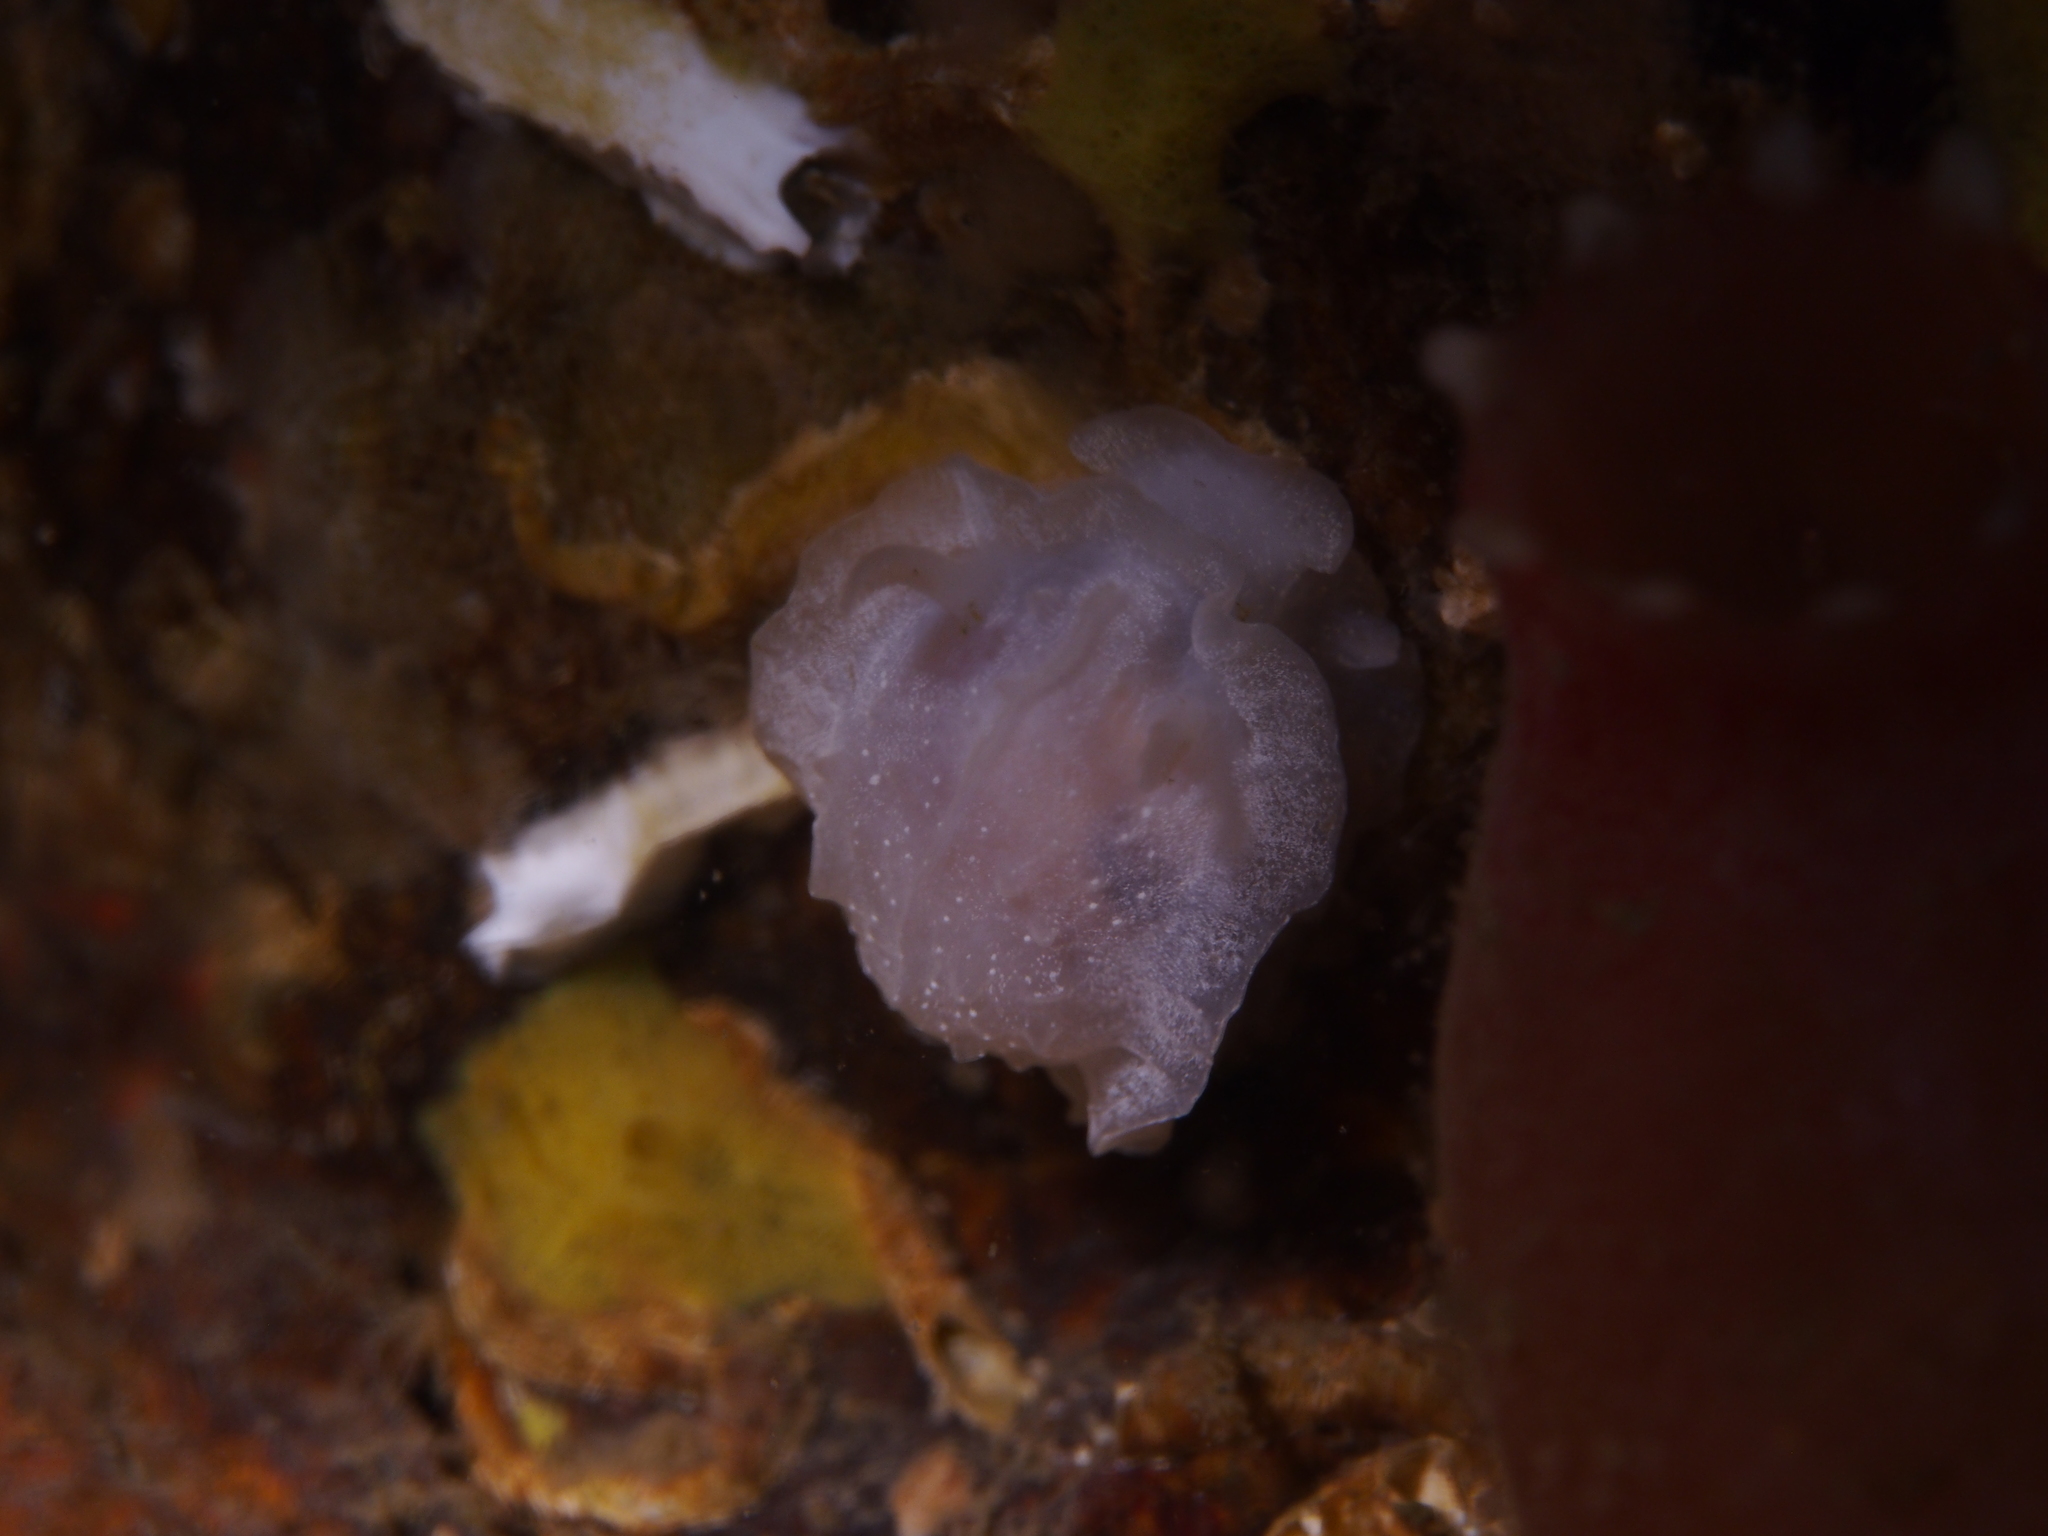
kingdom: Animalia
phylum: Mollusca
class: Gastropoda
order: Nudibranchia
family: Goniodorididae
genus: Okenia
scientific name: Okenia
